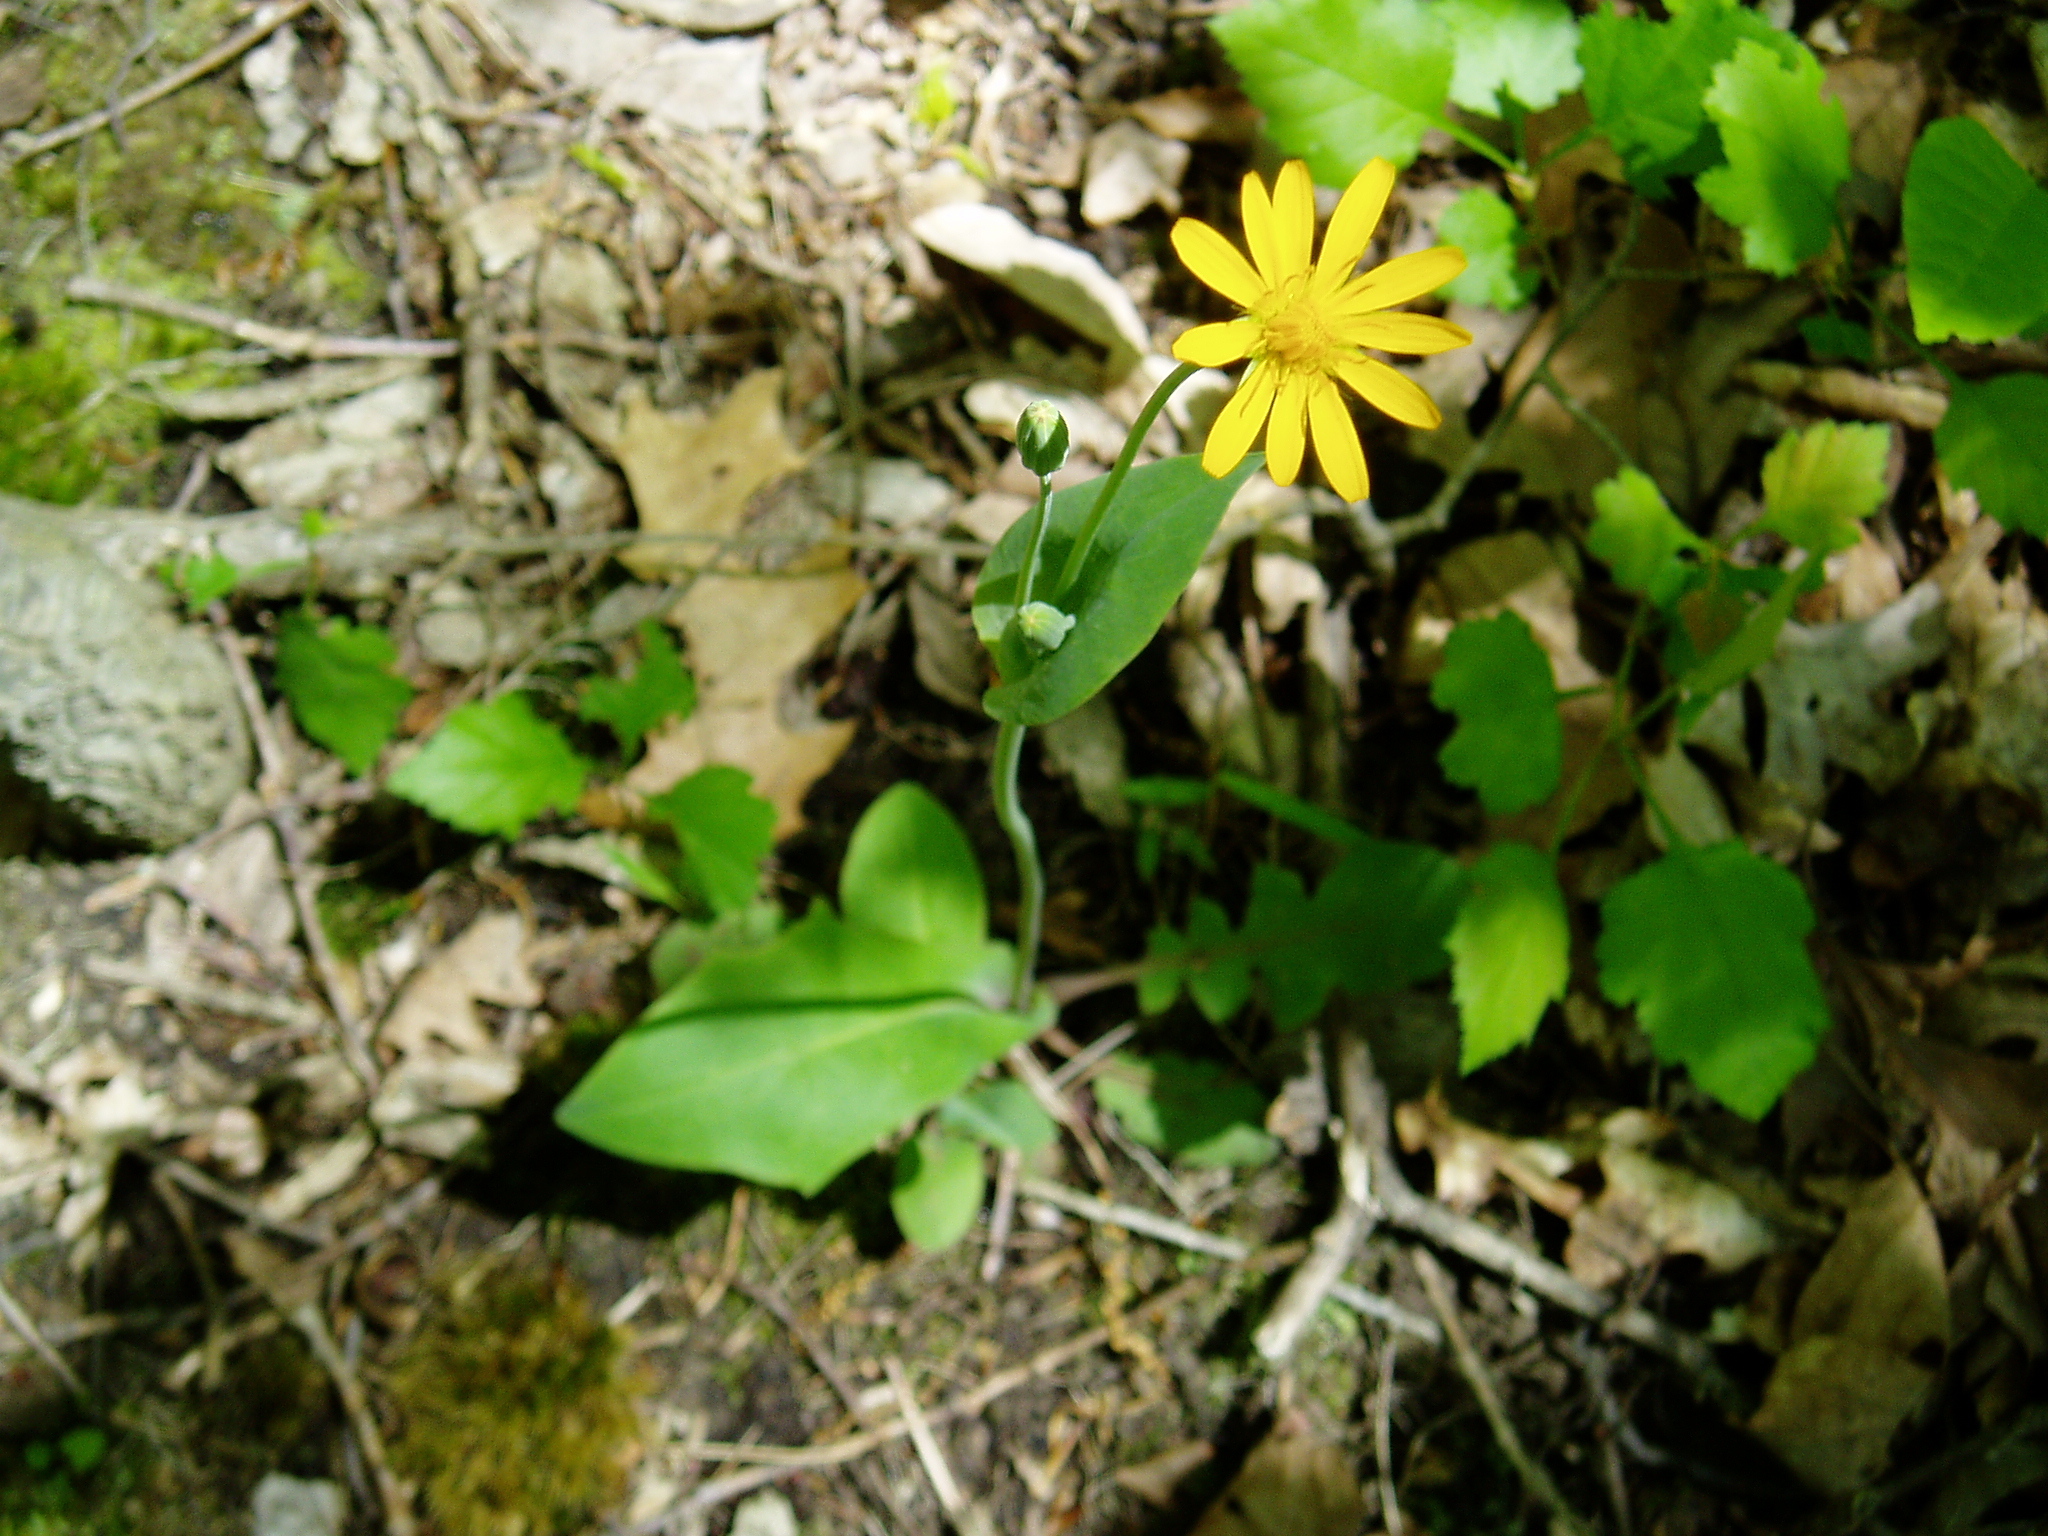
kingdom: Plantae
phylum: Tracheophyta
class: Magnoliopsida
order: Asterales
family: Asteraceae
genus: Krigia
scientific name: Krigia biflora
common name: Orange dwarf-dandelion
